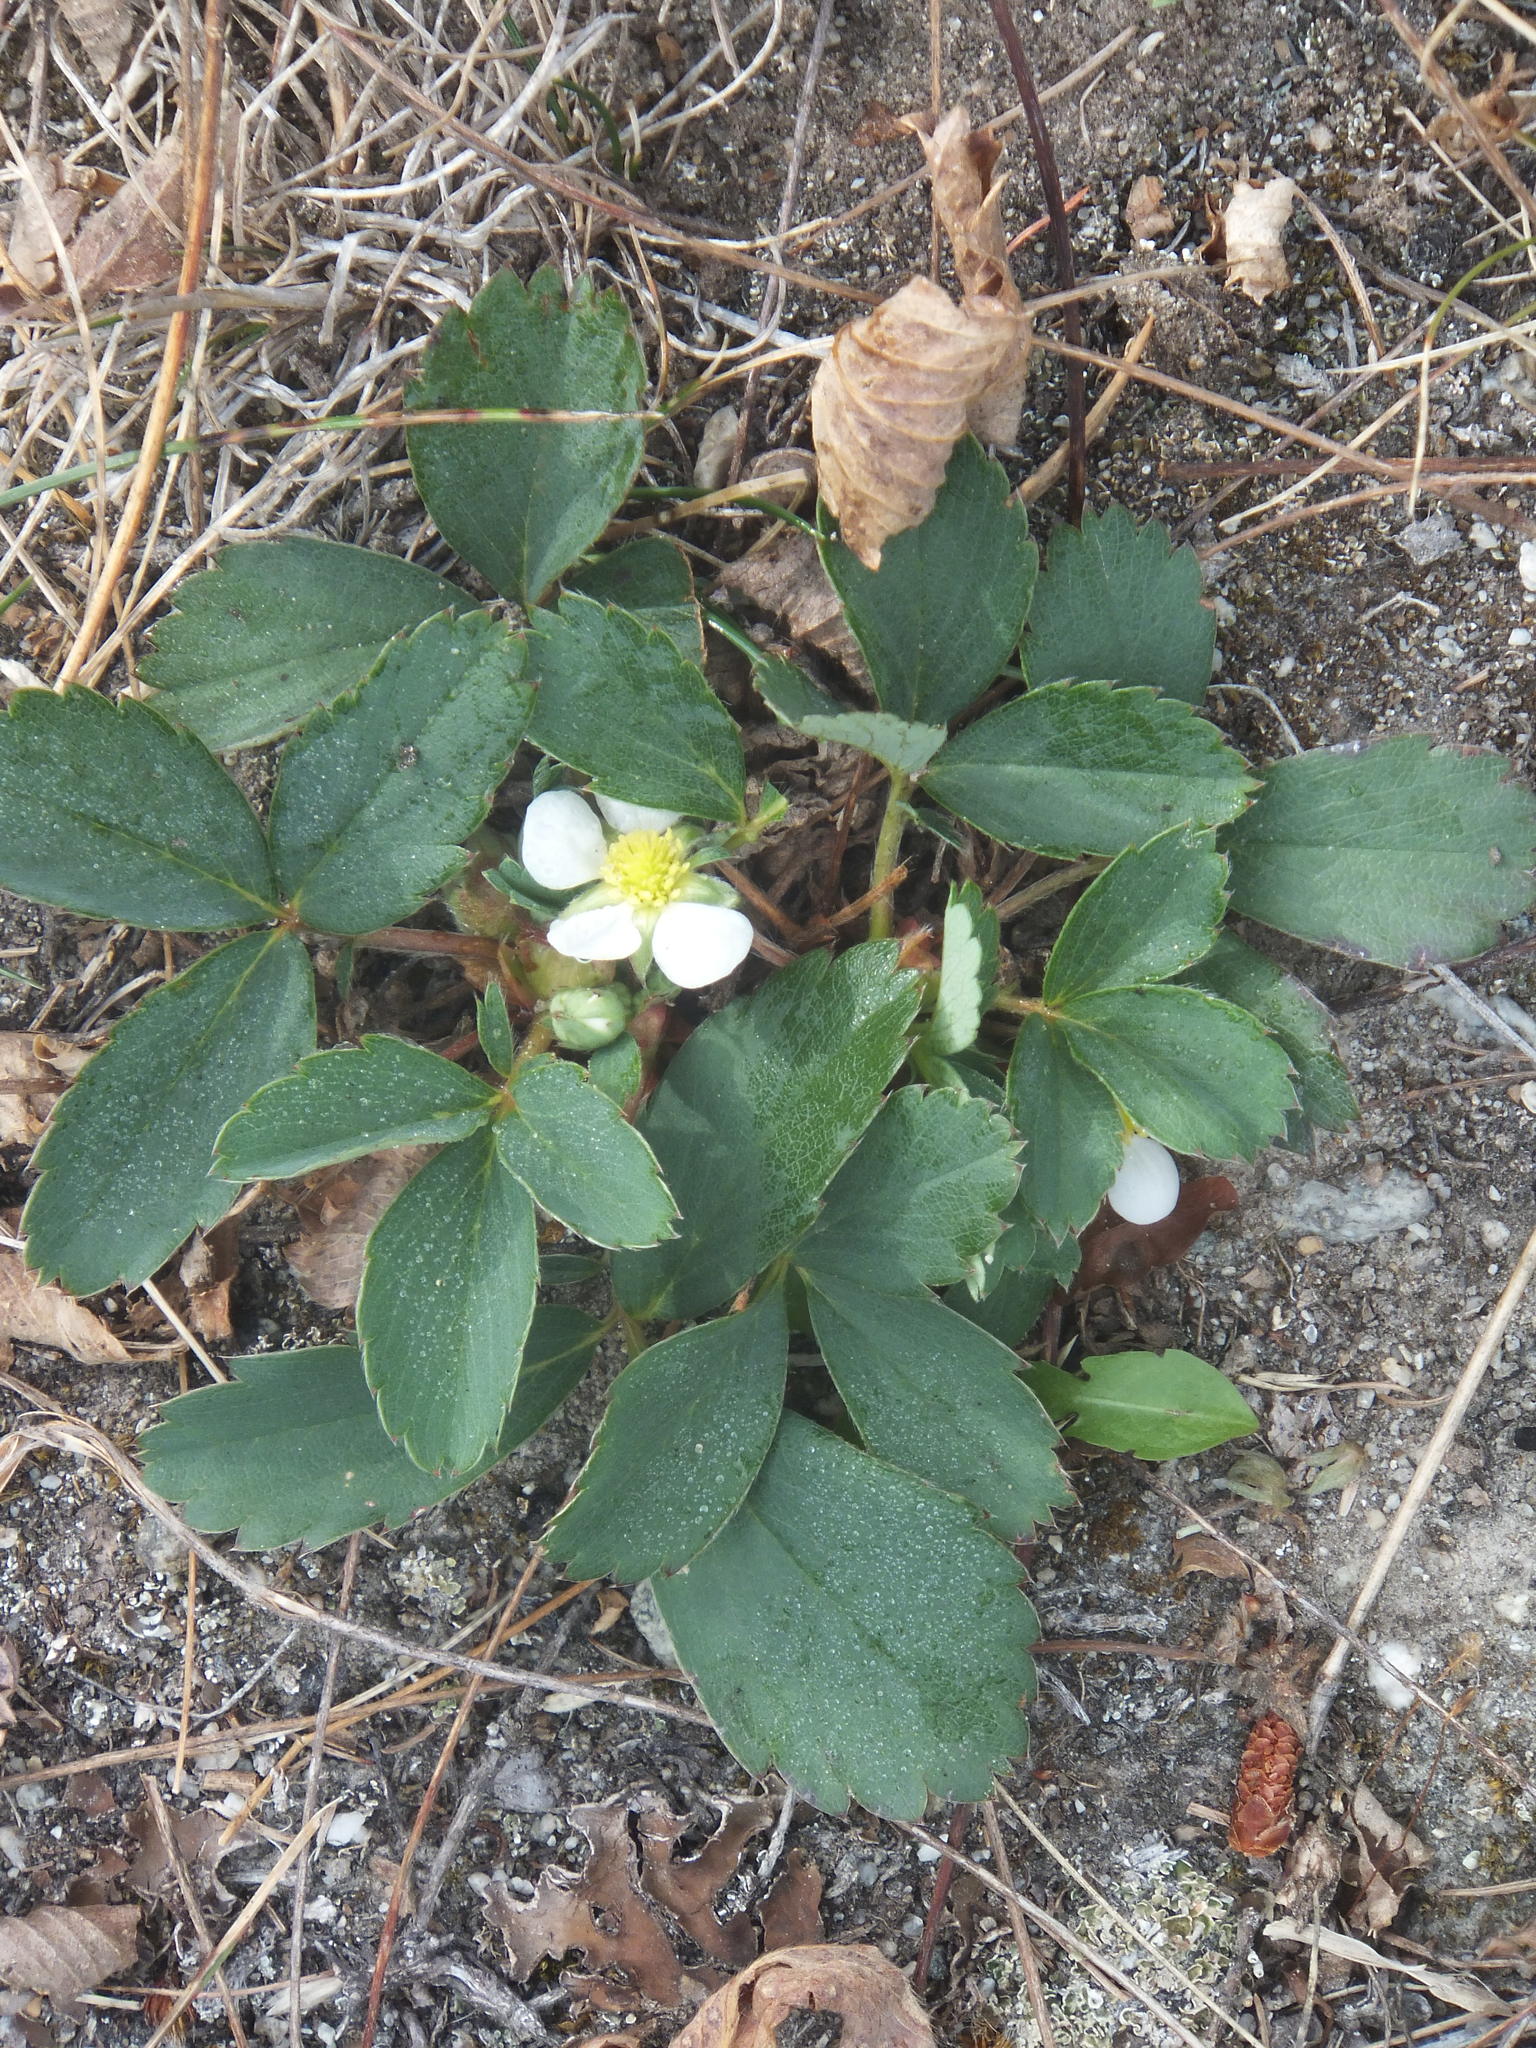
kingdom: Plantae
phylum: Tracheophyta
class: Magnoliopsida
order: Rosales
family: Rosaceae
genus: Fragaria
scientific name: Fragaria virginiana
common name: Thickleaved wild strawberry
